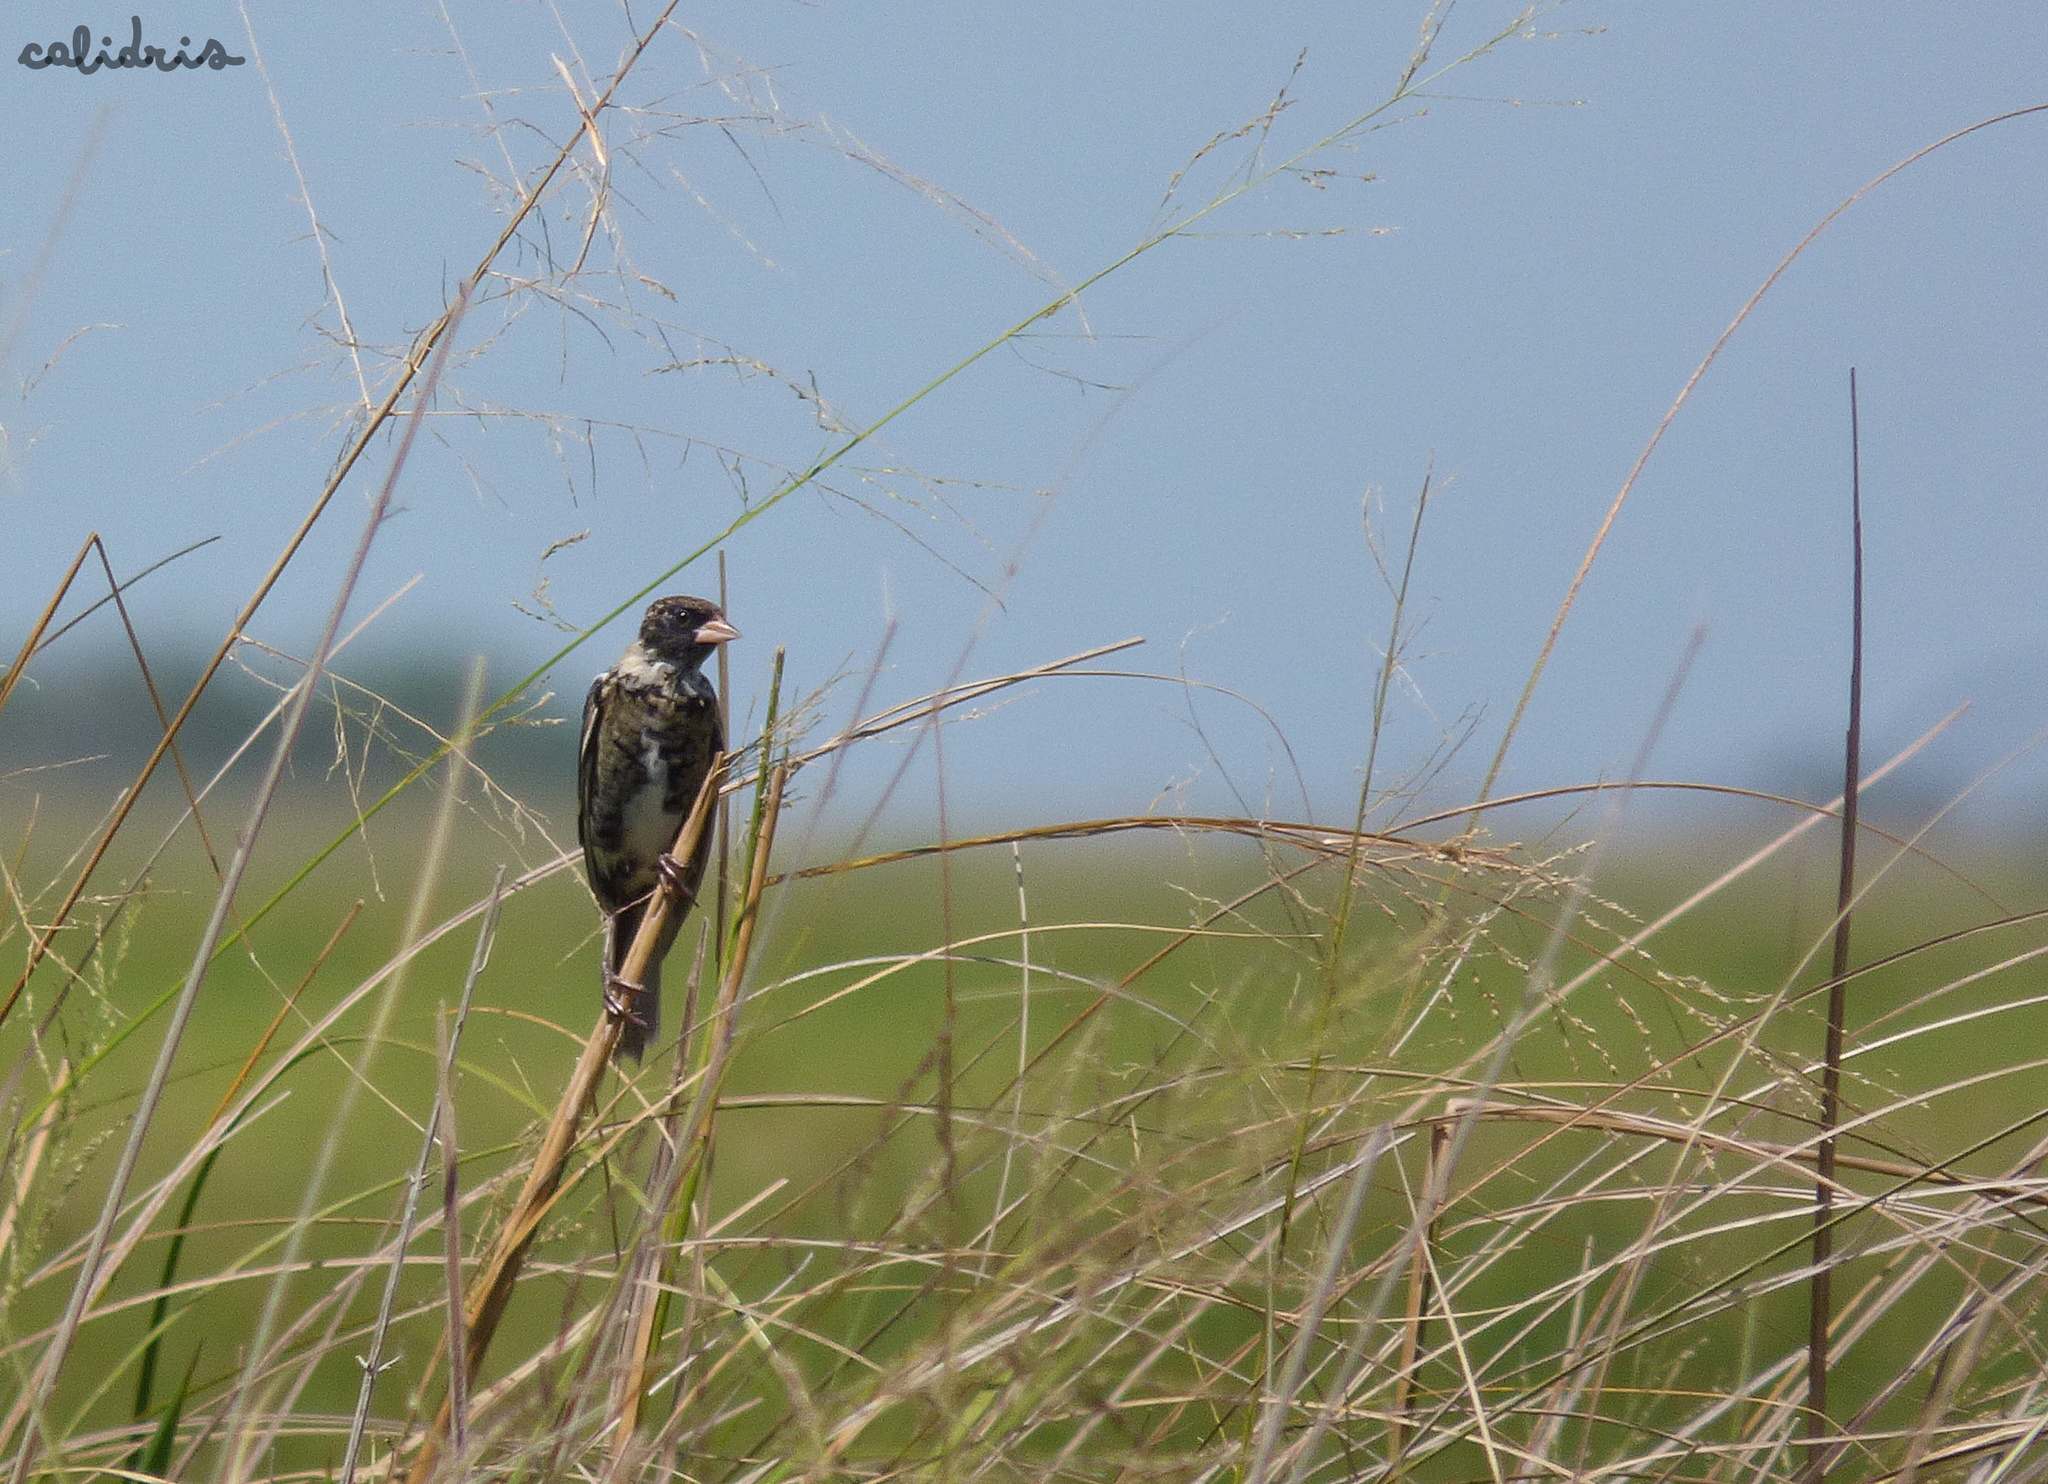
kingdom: Animalia
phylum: Chordata
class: Aves
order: Passeriformes
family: Icteridae
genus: Dolichonyx
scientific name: Dolichonyx oryzivorus
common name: Bobolink
